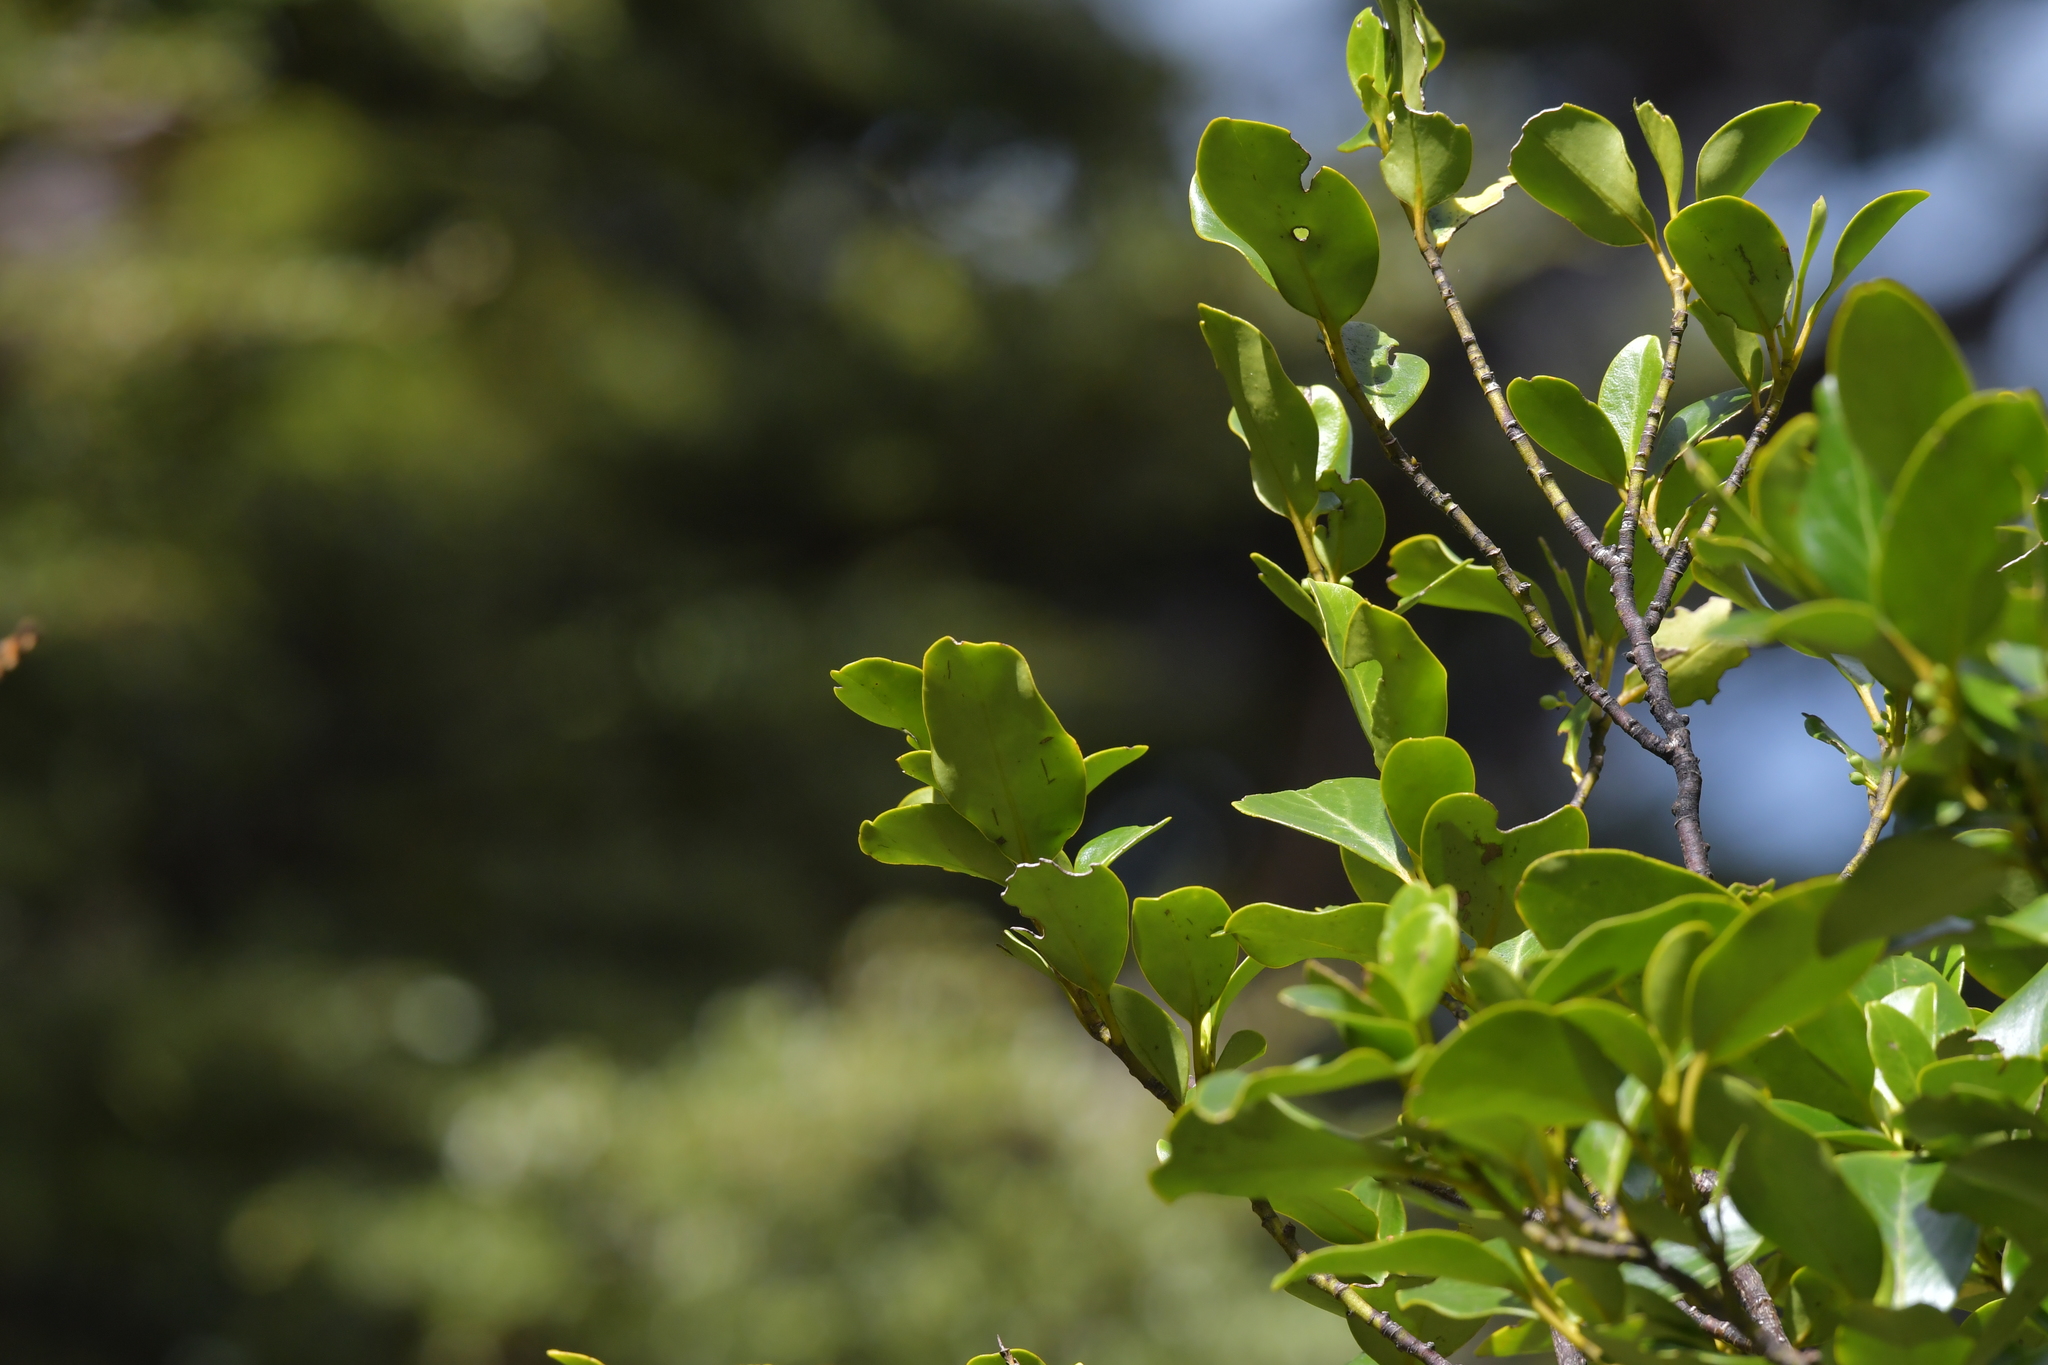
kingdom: Plantae
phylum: Tracheophyta
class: Magnoliopsida
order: Apiales
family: Griseliniaceae
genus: Griselinia
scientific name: Griselinia littoralis
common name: New zealand broadleaf
